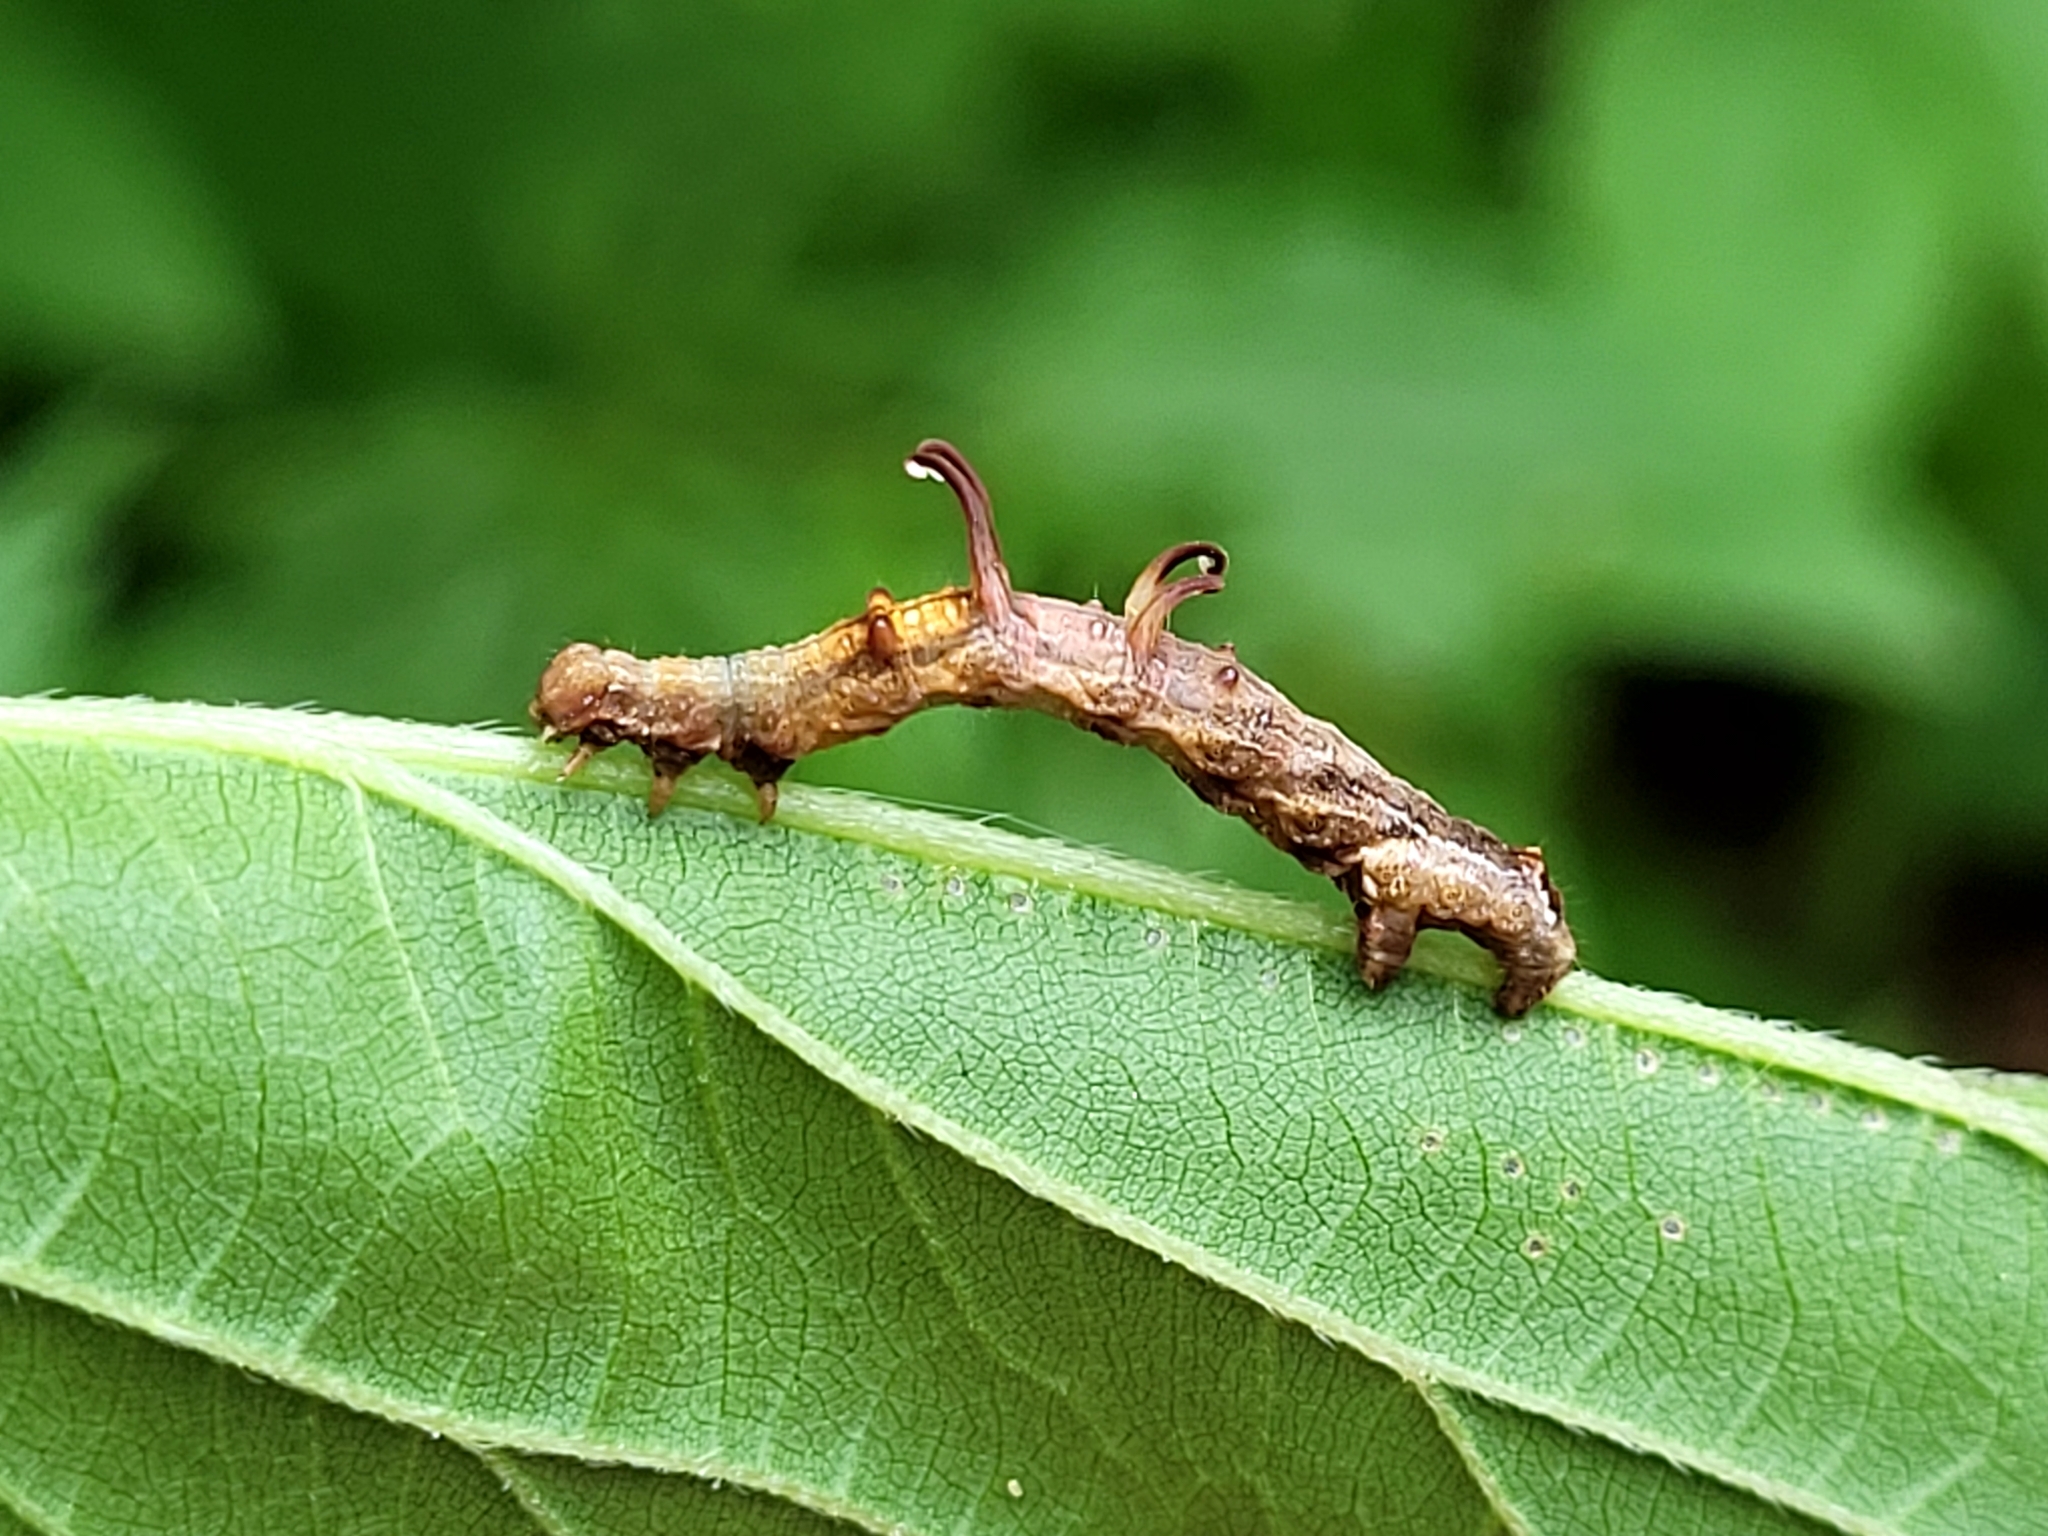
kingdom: Animalia
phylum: Arthropoda
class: Insecta
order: Lepidoptera
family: Geometridae
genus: Nematocampa
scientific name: Nematocampa resistaria
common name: Horned spanworm moth
